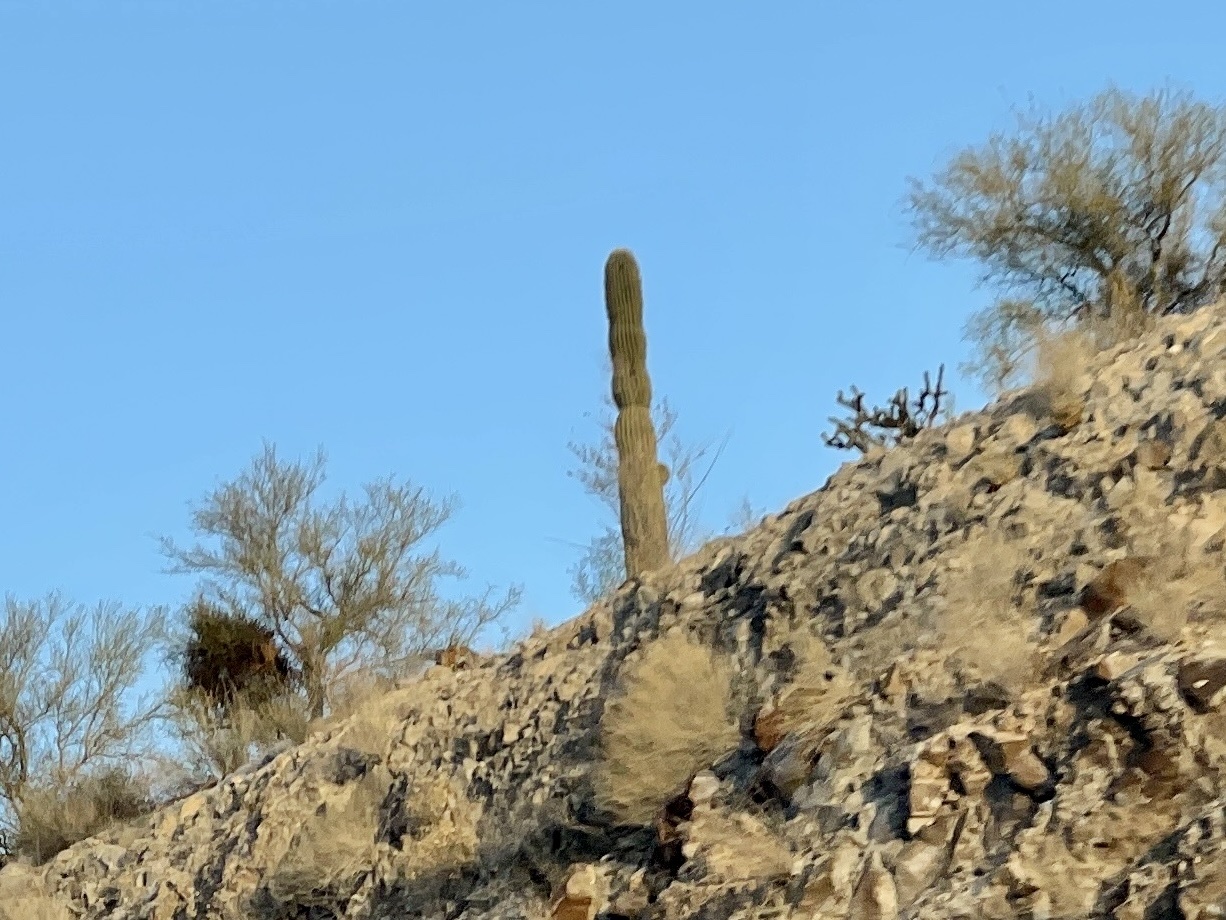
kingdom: Plantae
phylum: Tracheophyta
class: Magnoliopsida
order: Caryophyllales
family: Cactaceae
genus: Carnegiea
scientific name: Carnegiea gigantea
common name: Saguaro
